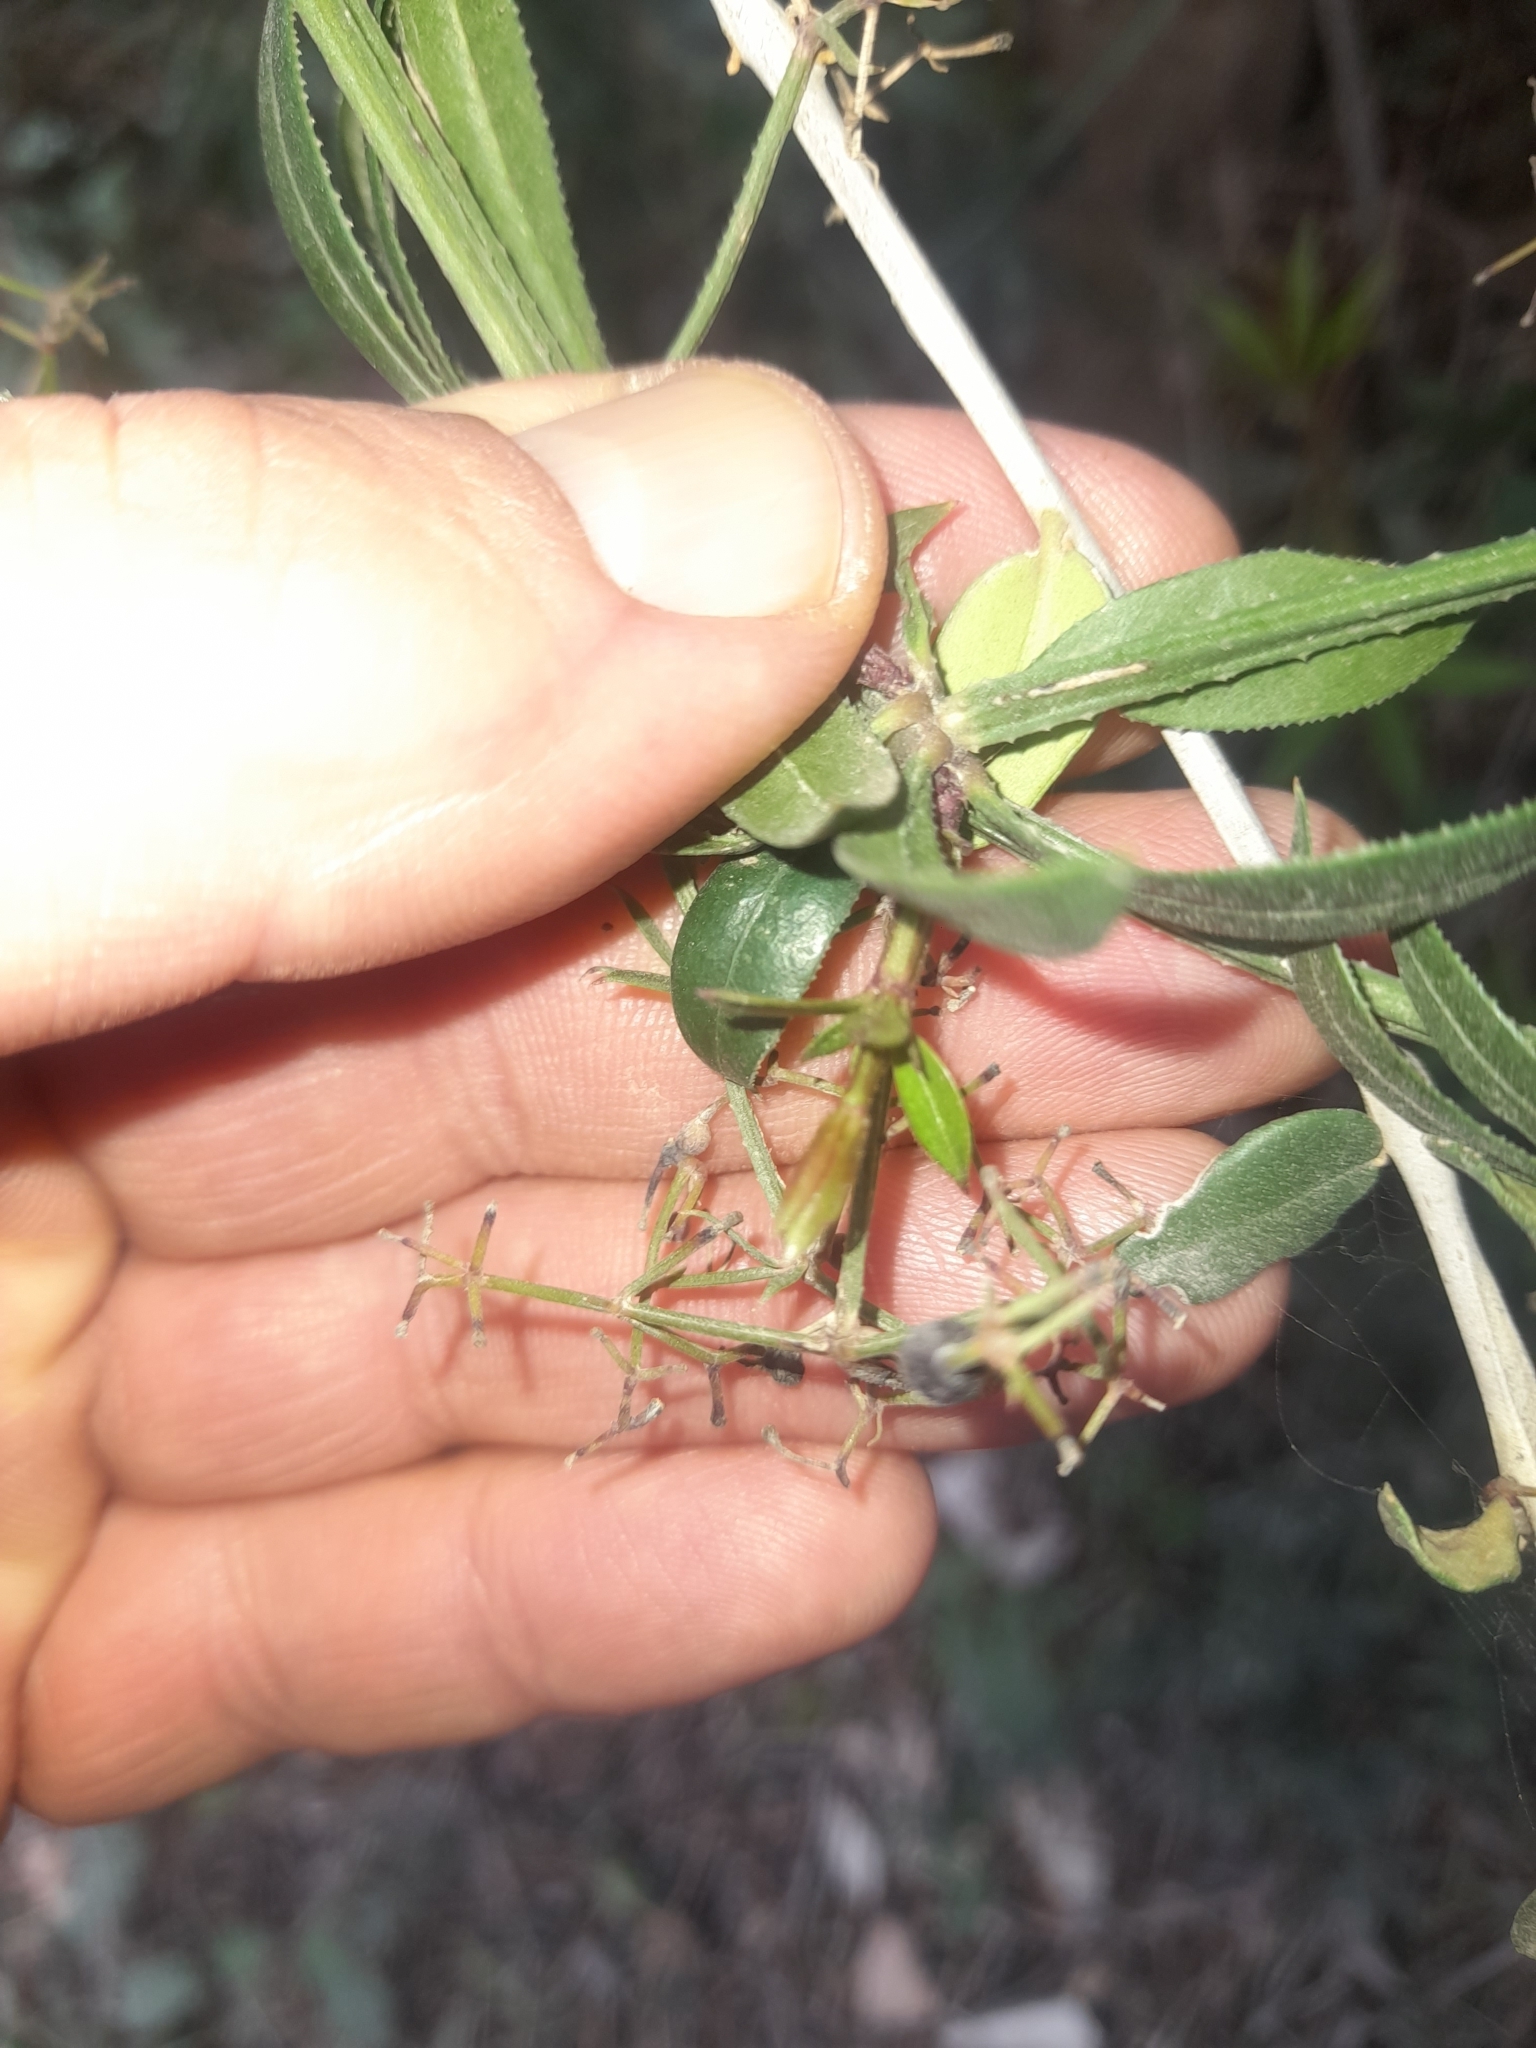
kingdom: Plantae
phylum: Tracheophyta
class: Magnoliopsida
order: Gentianales
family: Rubiaceae
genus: Rubia
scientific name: Rubia peregrina
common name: Wild madder
